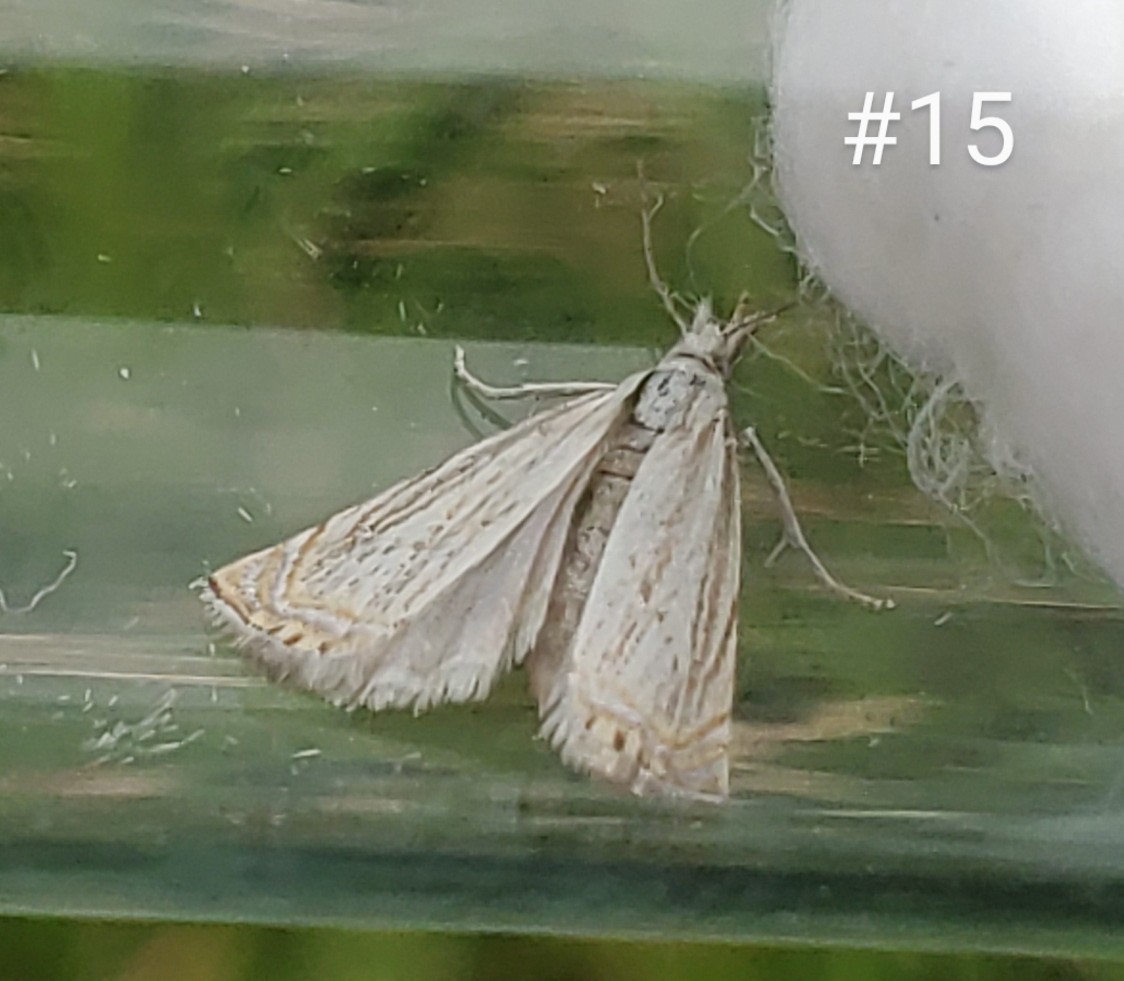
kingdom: Animalia
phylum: Arthropoda
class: Insecta
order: Lepidoptera
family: Crambidae
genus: Chrysoteuchia
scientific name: Chrysoteuchia topiarius
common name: Topiary grass-veneer
